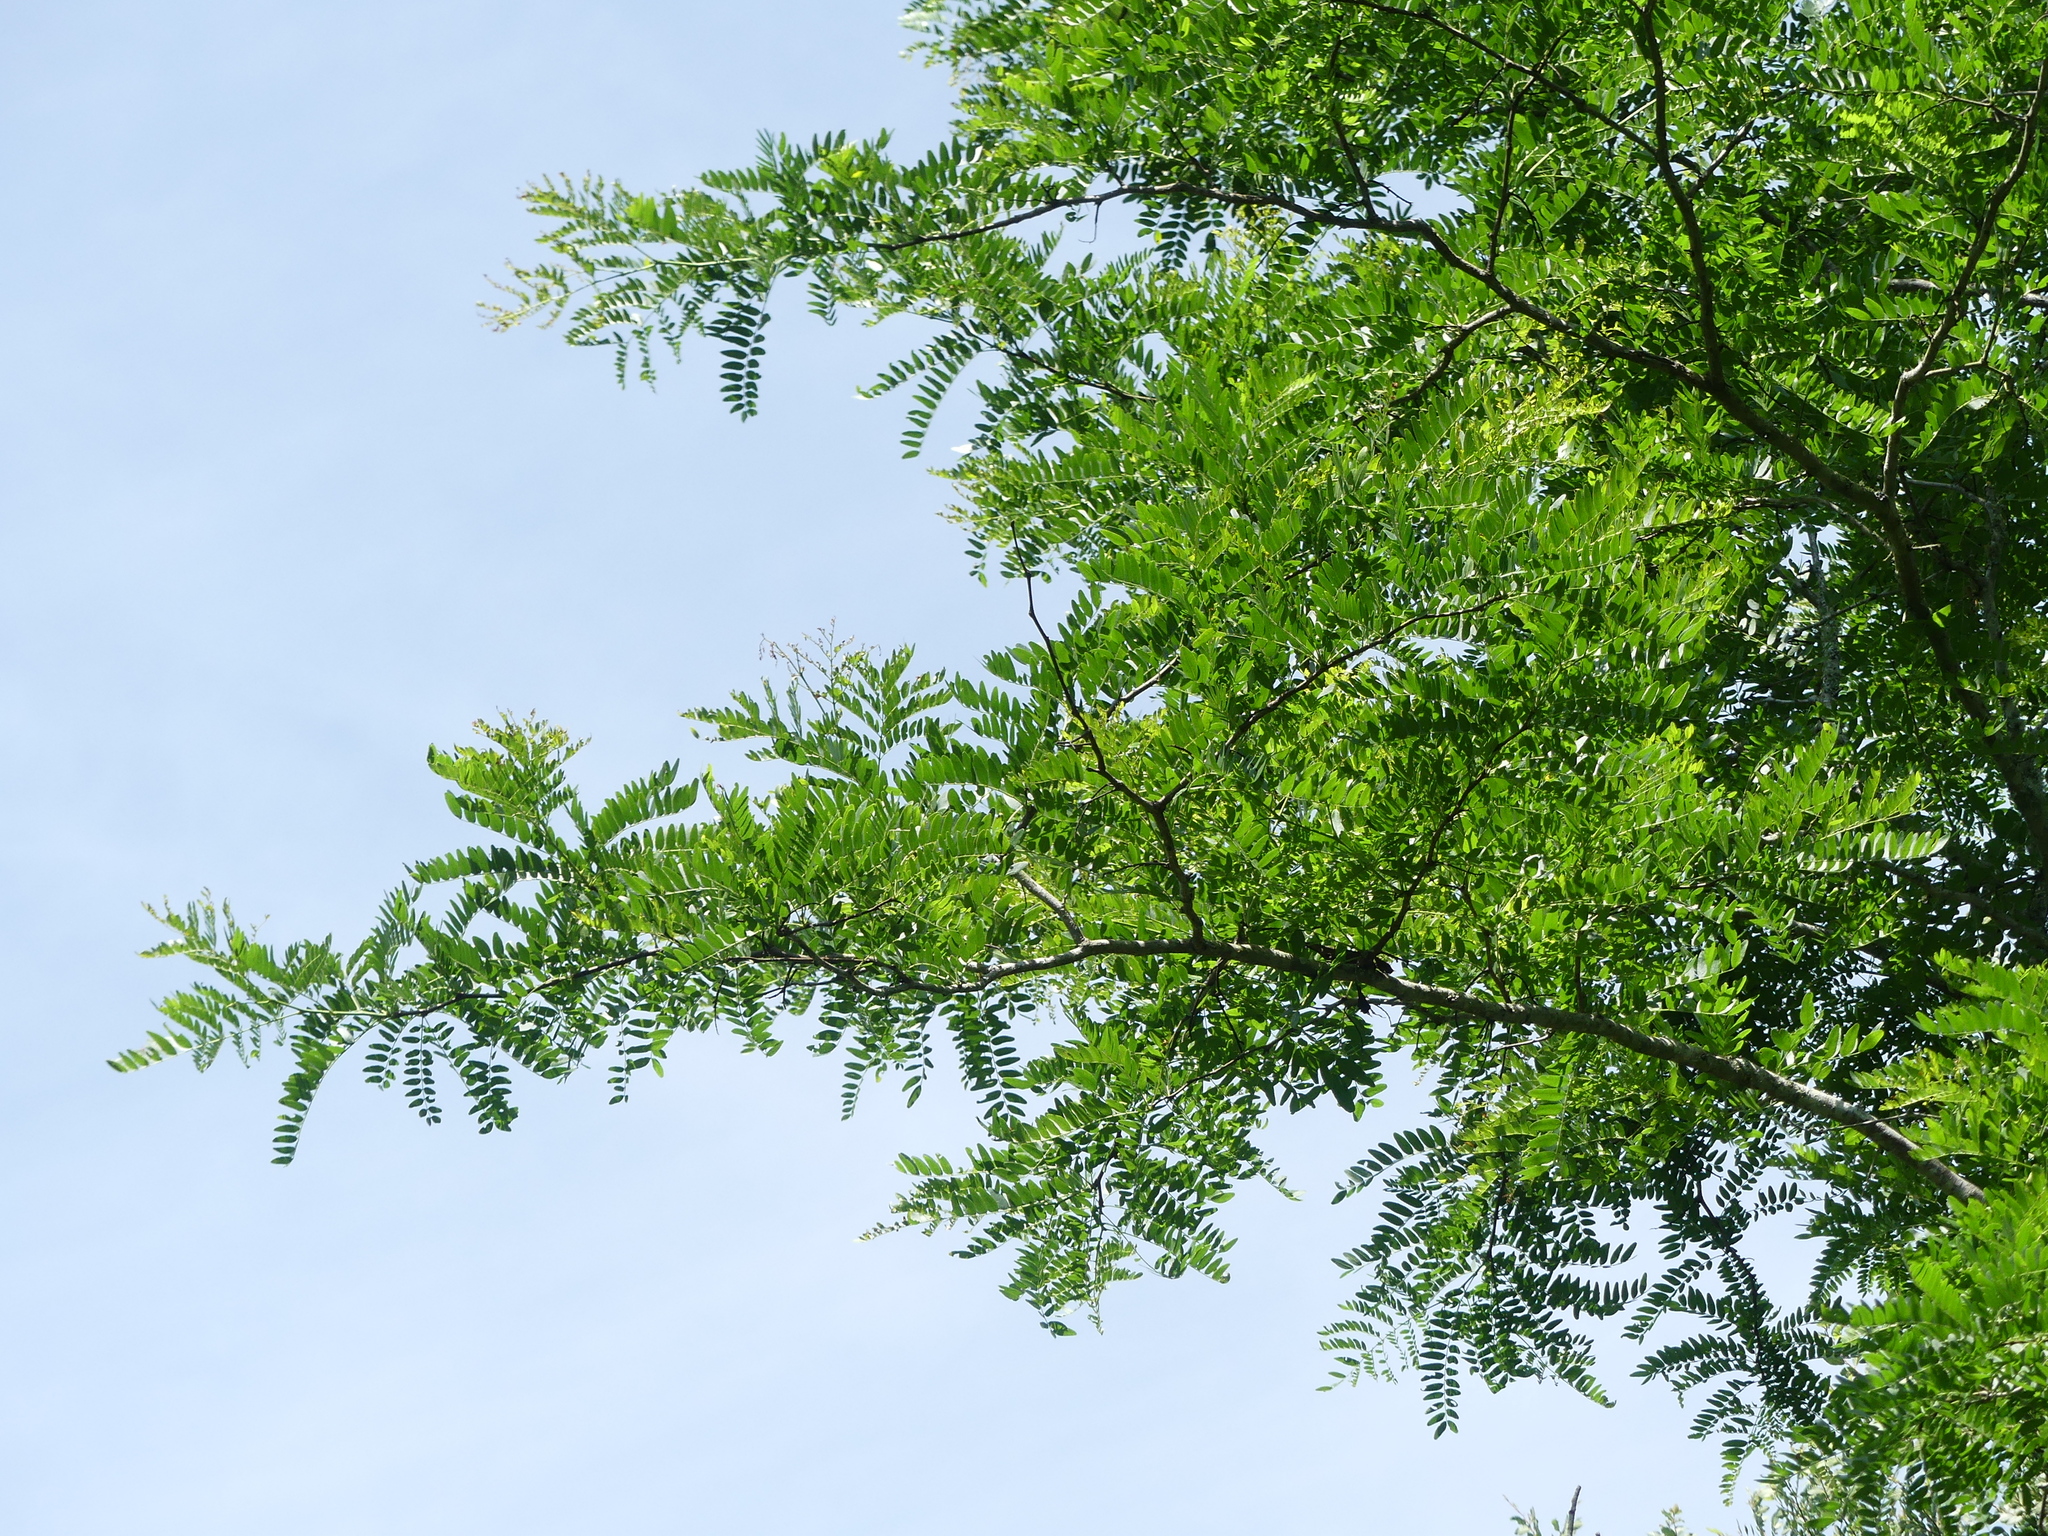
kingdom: Plantae
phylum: Tracheophyta
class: Magnoliopsida
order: Fabales
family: Fabaceae
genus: Gleditsia
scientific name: Gleditsia triacanthos
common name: Common honeylocust
